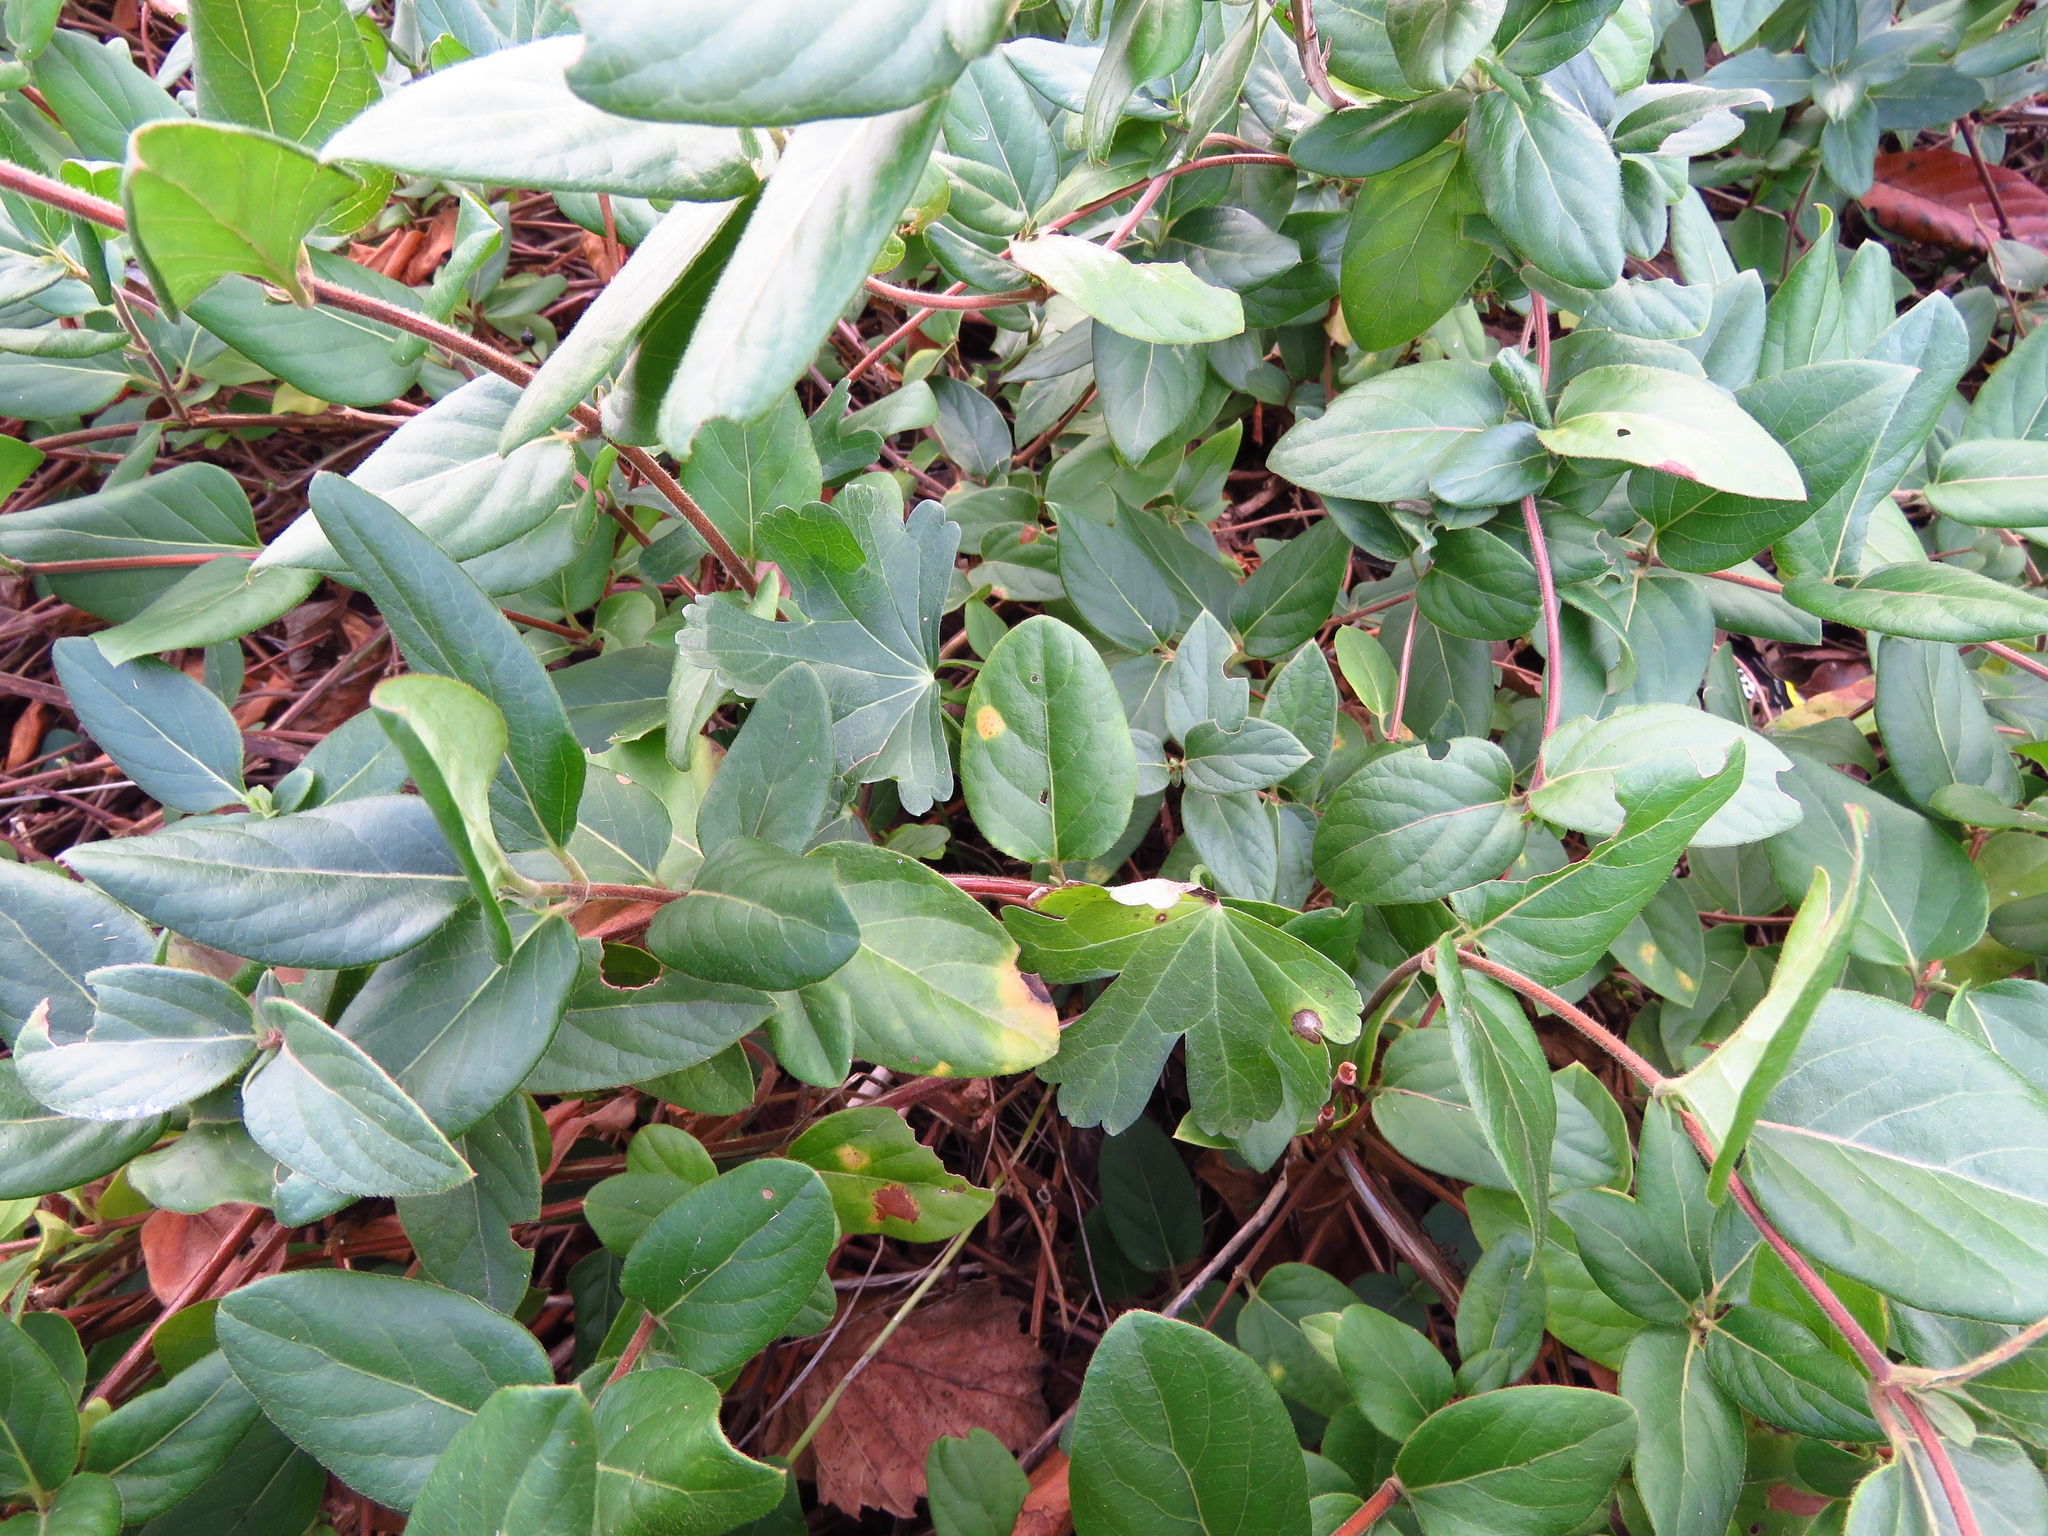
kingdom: Plantae
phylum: Tracheophyta
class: Magnoliopsida
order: Dipsacales
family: Caprifoliaceae
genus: Lonicera
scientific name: Lonicera japonica
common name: Japanese honeysuckle
